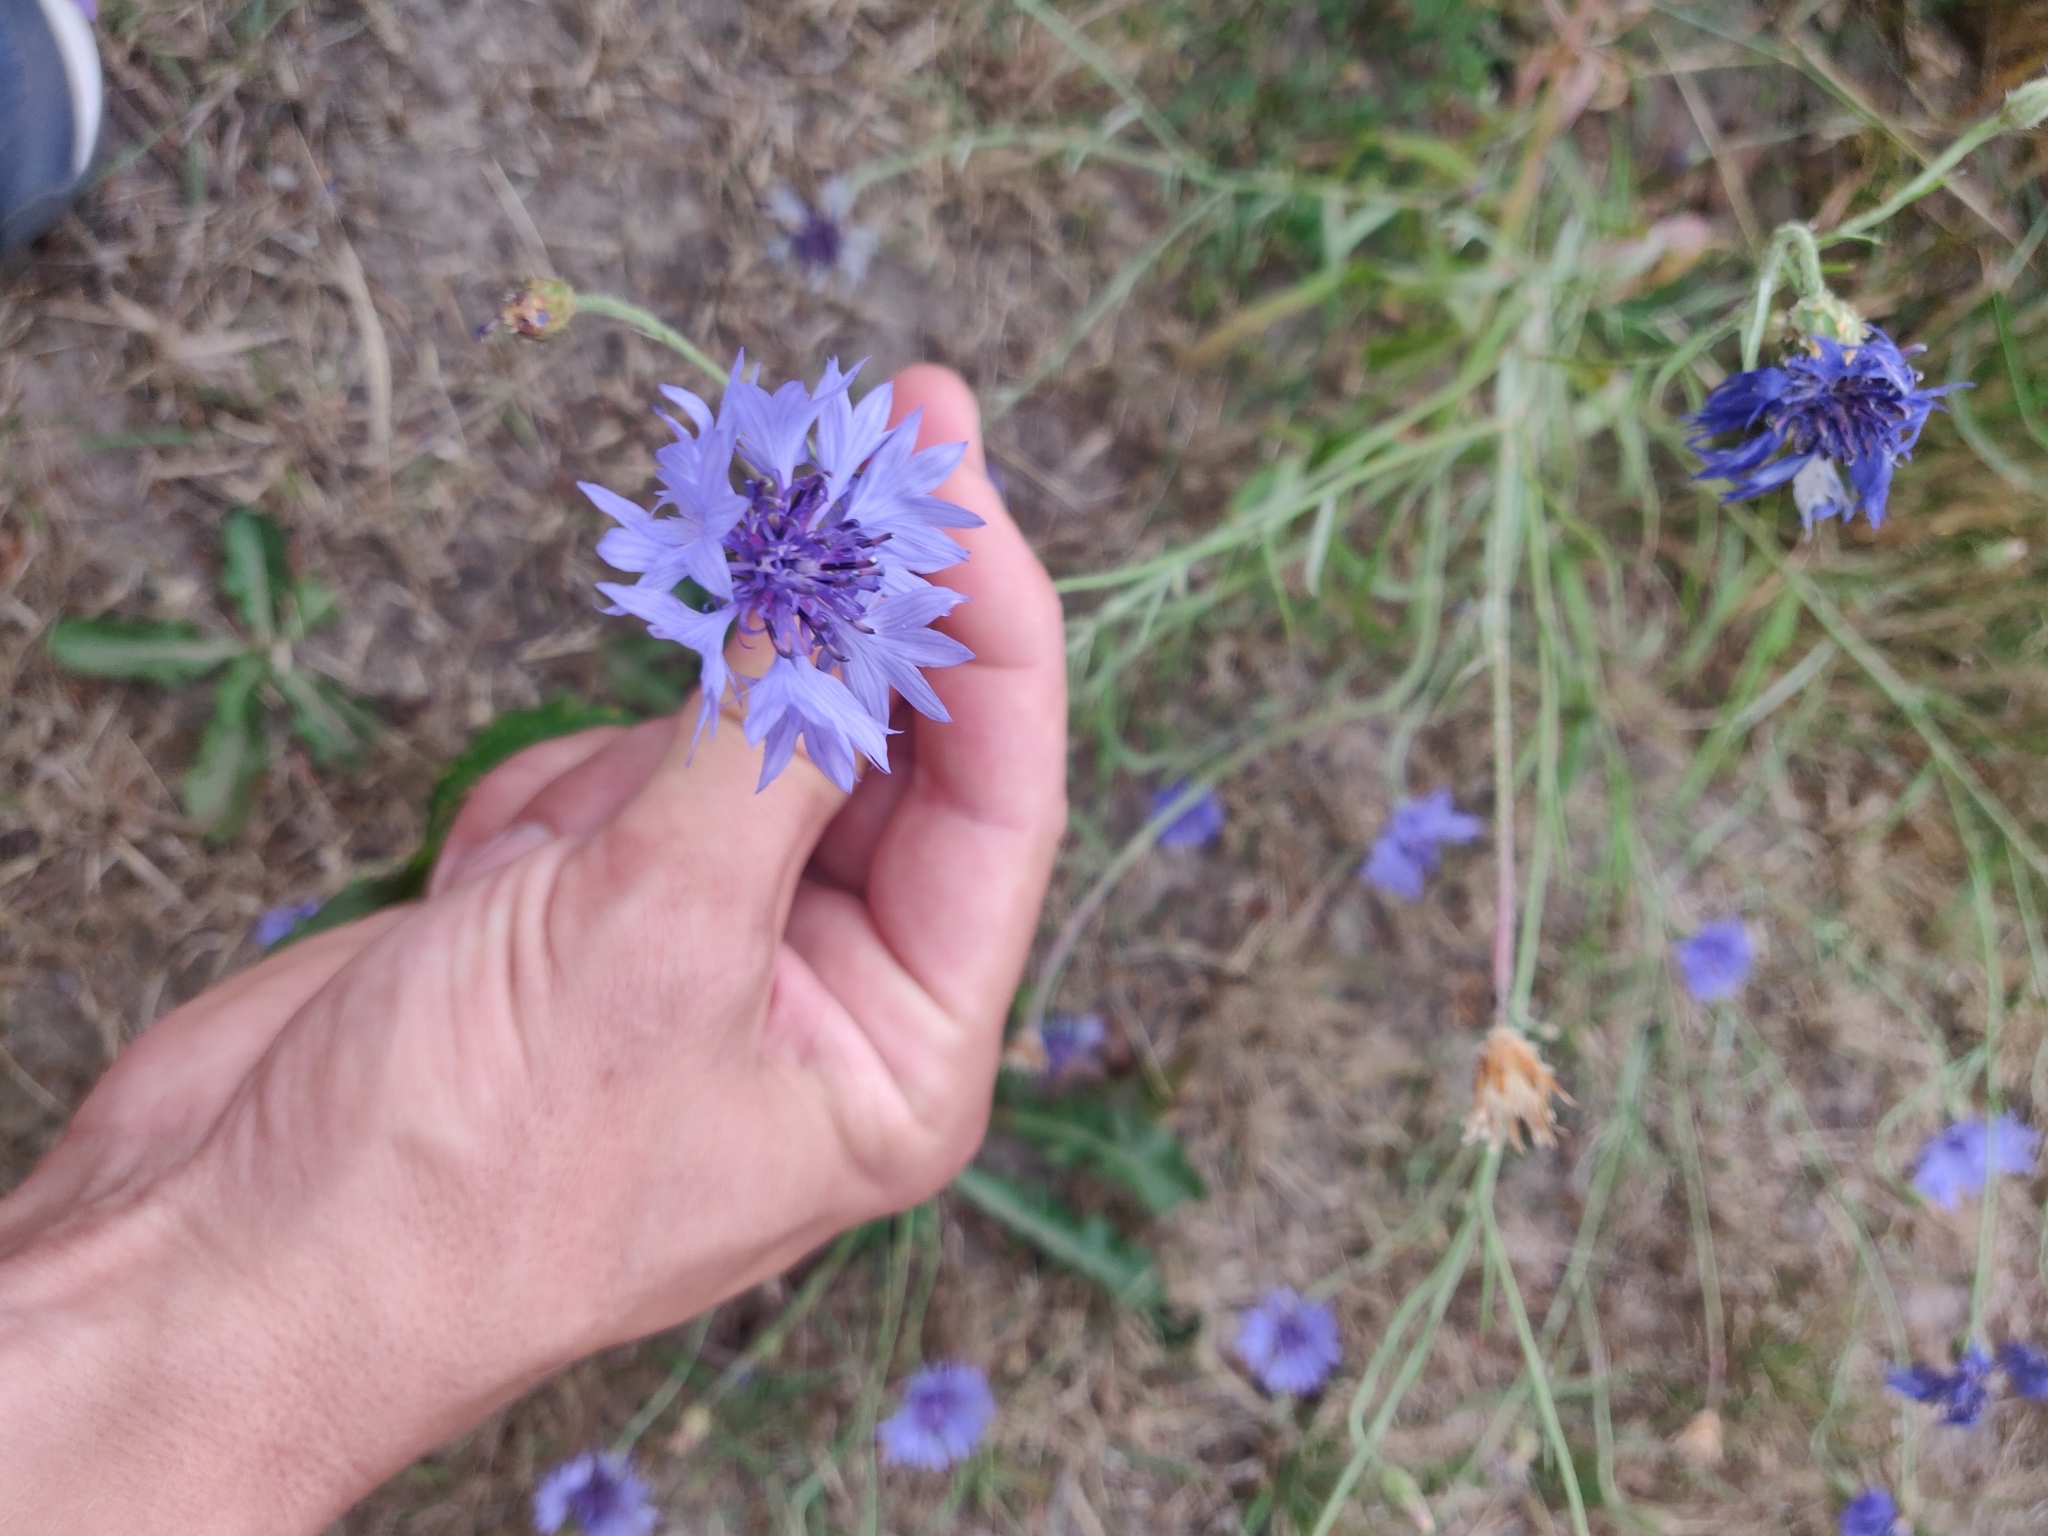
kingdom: Plantae
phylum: Tracheophyta
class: Magnoliopsida
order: Asterales
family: Asteraceae
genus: Centaurea
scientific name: Centaurea cyanus
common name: Cornflower
